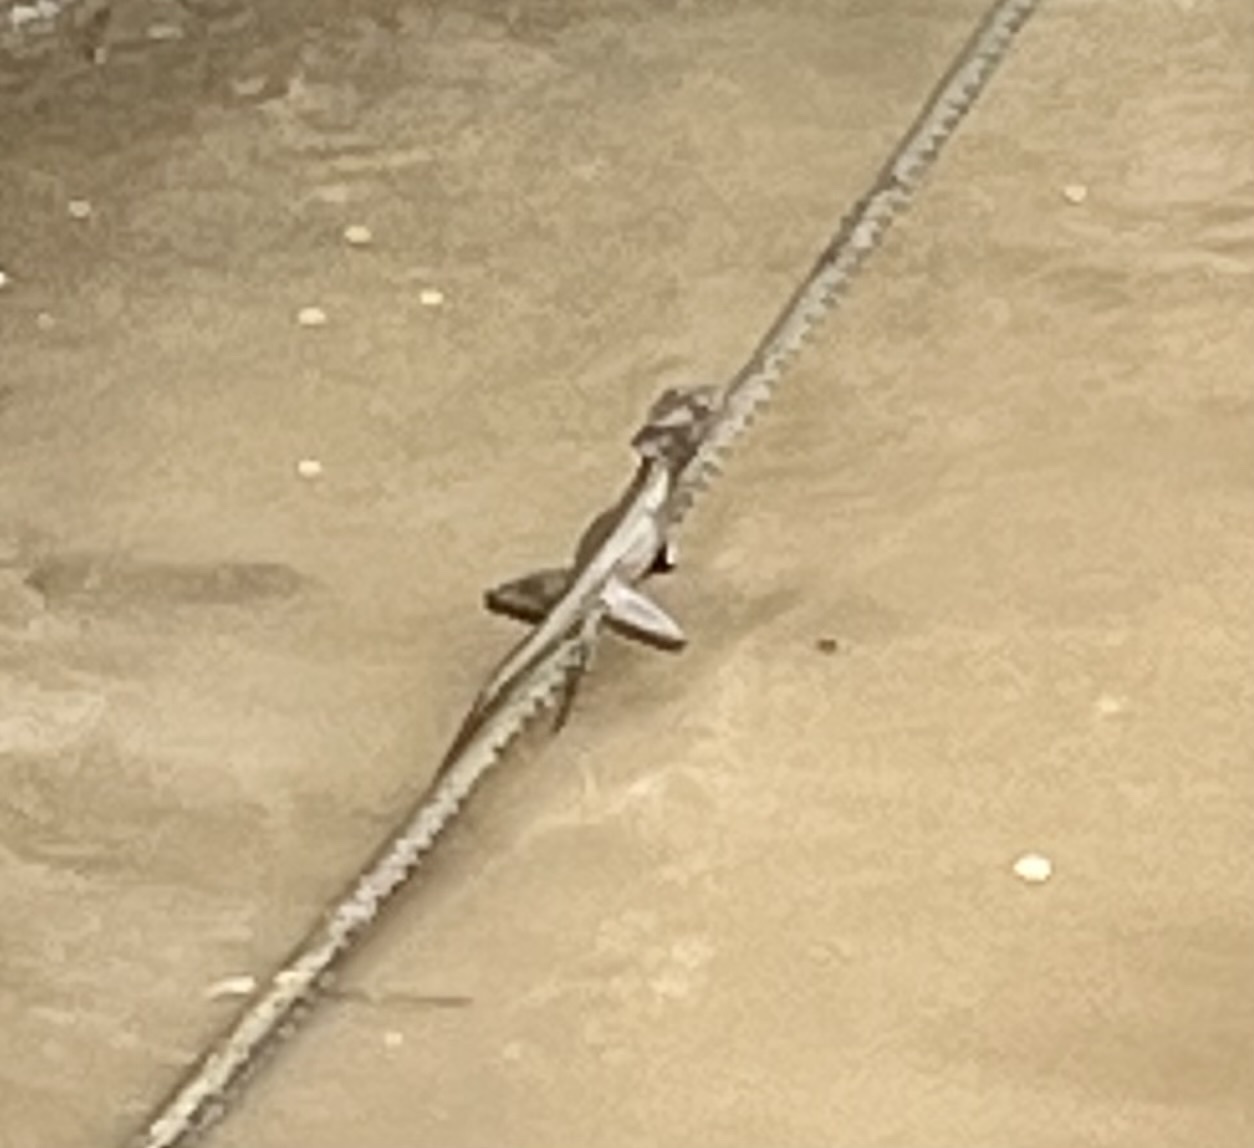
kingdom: Animalia
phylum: Chordata
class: Squamata
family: Corytophanidae
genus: Basiliscus
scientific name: Basiliscus basiliscus
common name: Common basilisk
